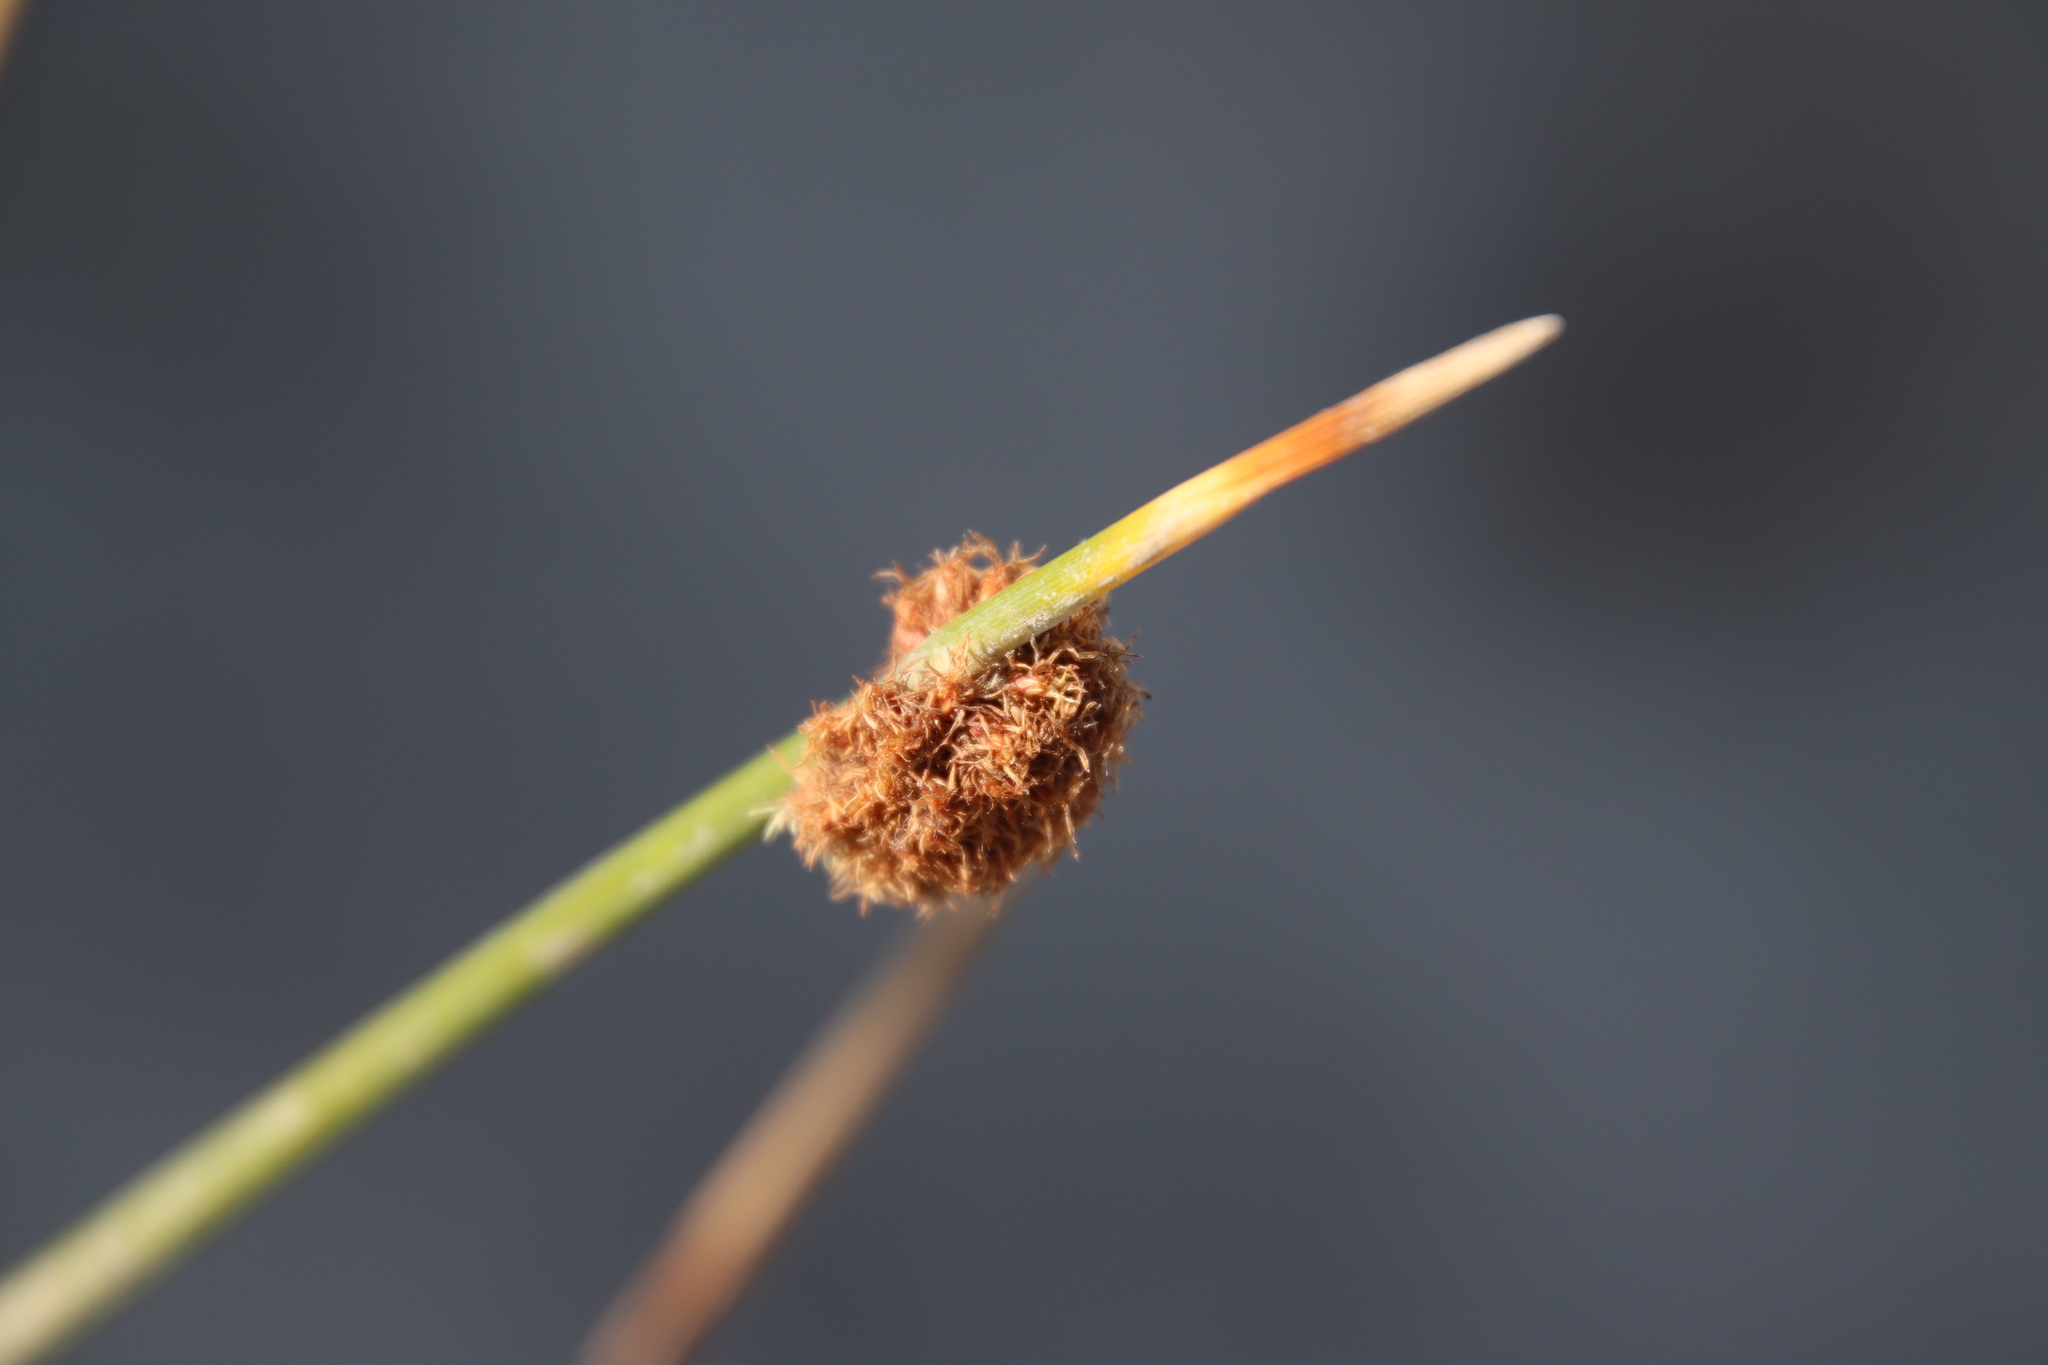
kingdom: Plantae
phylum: Tracheophyta
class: Liliopsida
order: Poales
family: Cyperaceae
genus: Ficinia
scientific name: Ficinia nodosa
